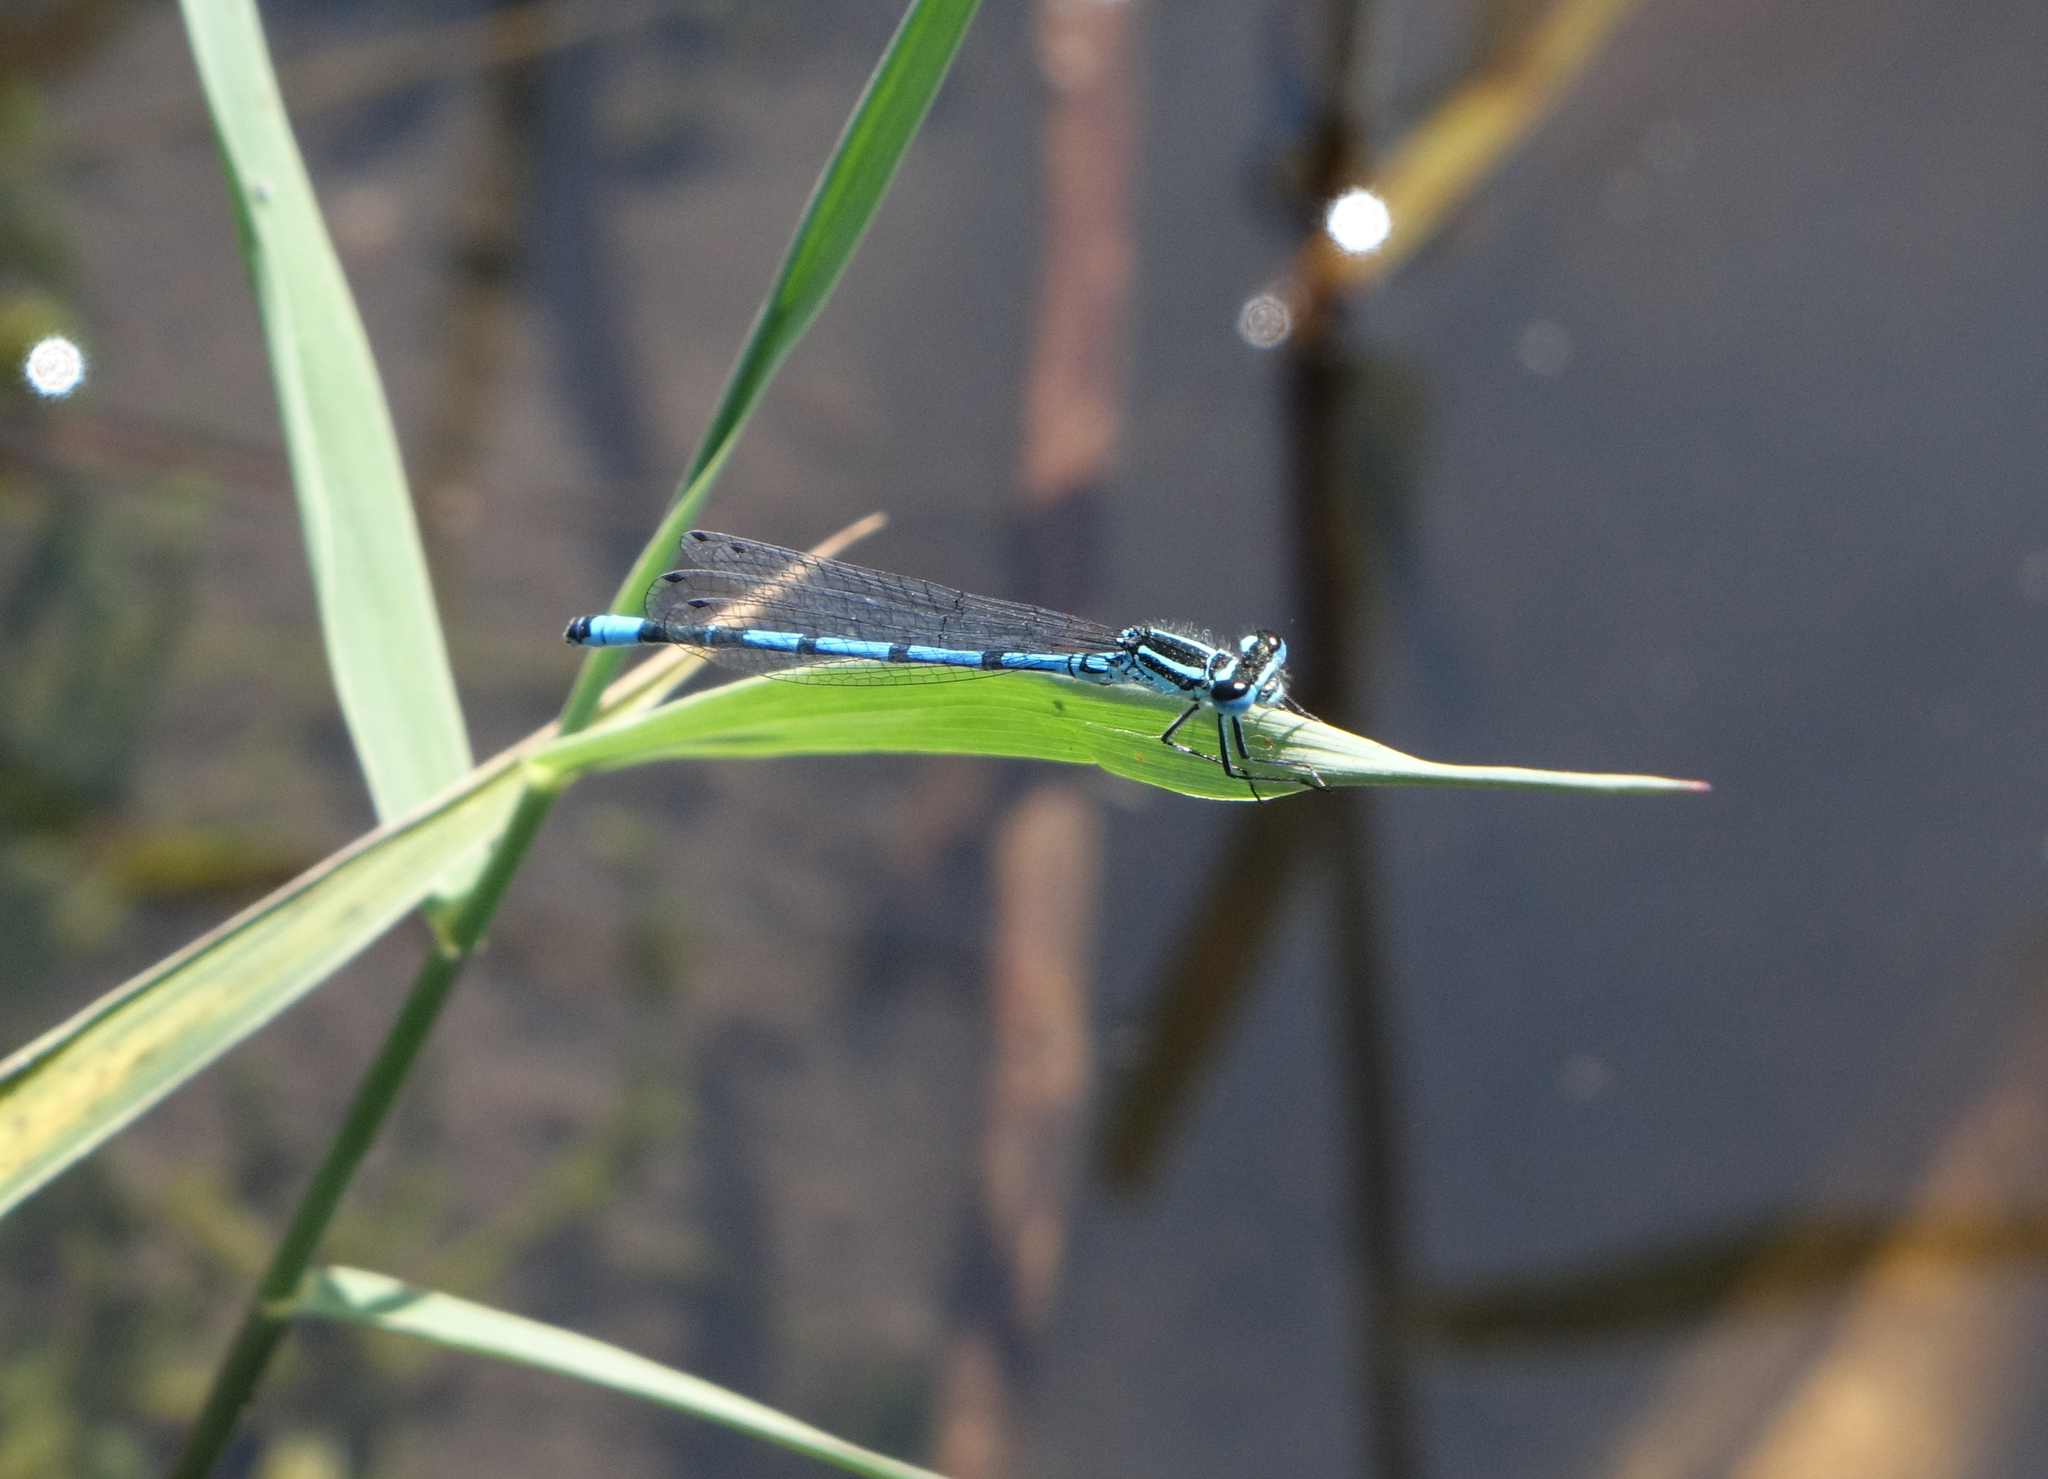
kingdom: Animalia
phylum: Arthropoda
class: Insecta
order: Odonata
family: Coenagrionidae
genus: Coenagrion
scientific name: Coenagrion puella
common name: Azure damselfly
